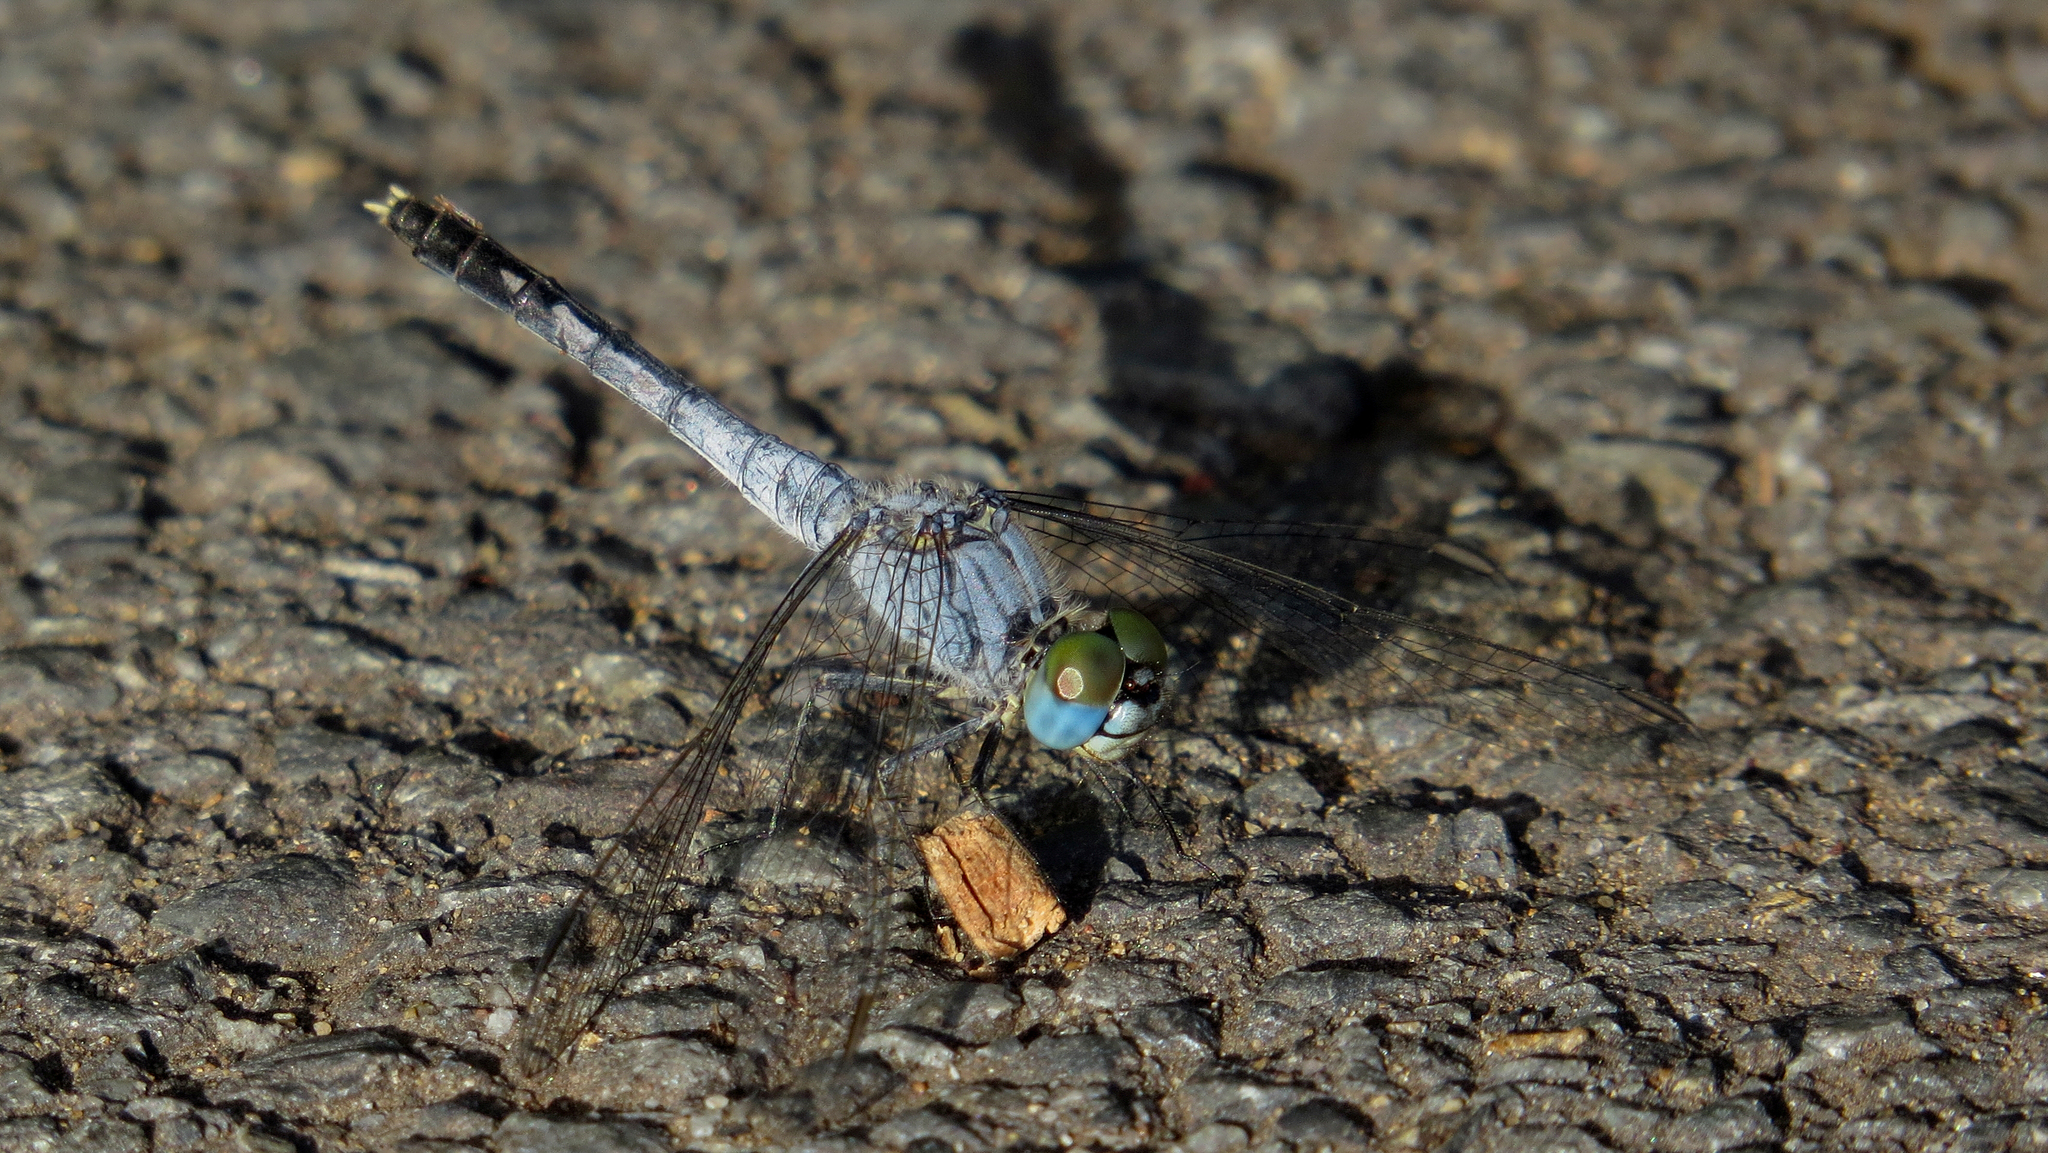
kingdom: Animalia
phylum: Arthropoda
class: Insecta
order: Odonata
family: Libellulidae
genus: Diplacodes
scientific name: Diplacodes trivialis
